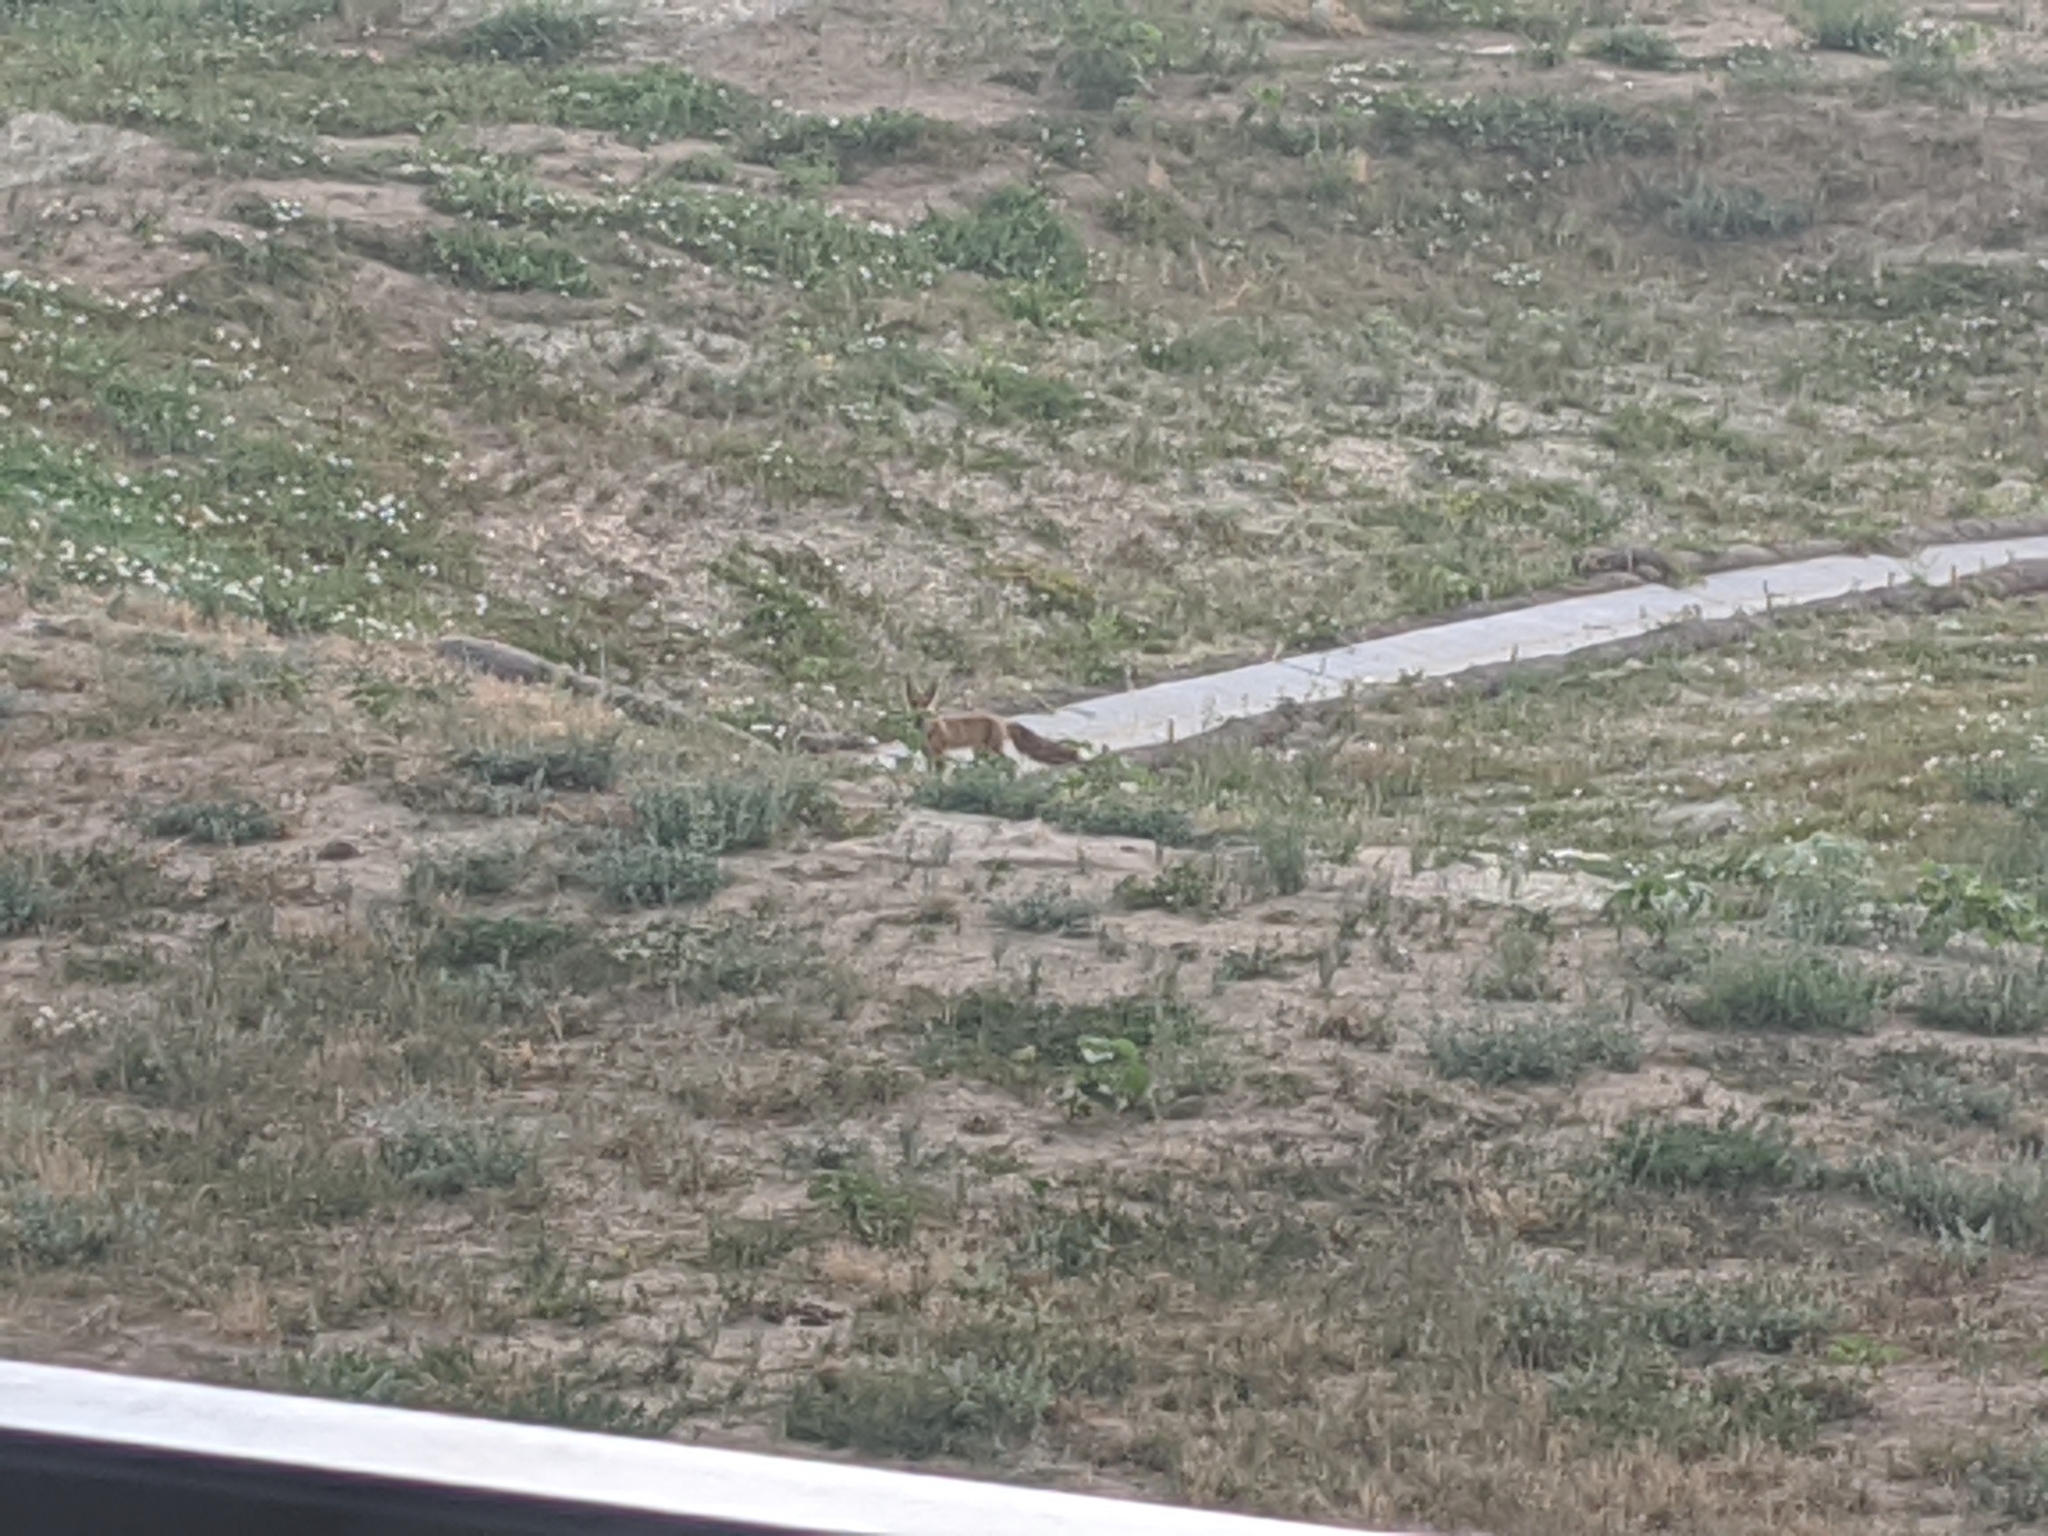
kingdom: Animalia
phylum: Chordata
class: Mammalia
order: Carnivora
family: Canidae
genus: Vulpes
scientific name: Vulpes vulpes
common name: Red fox
